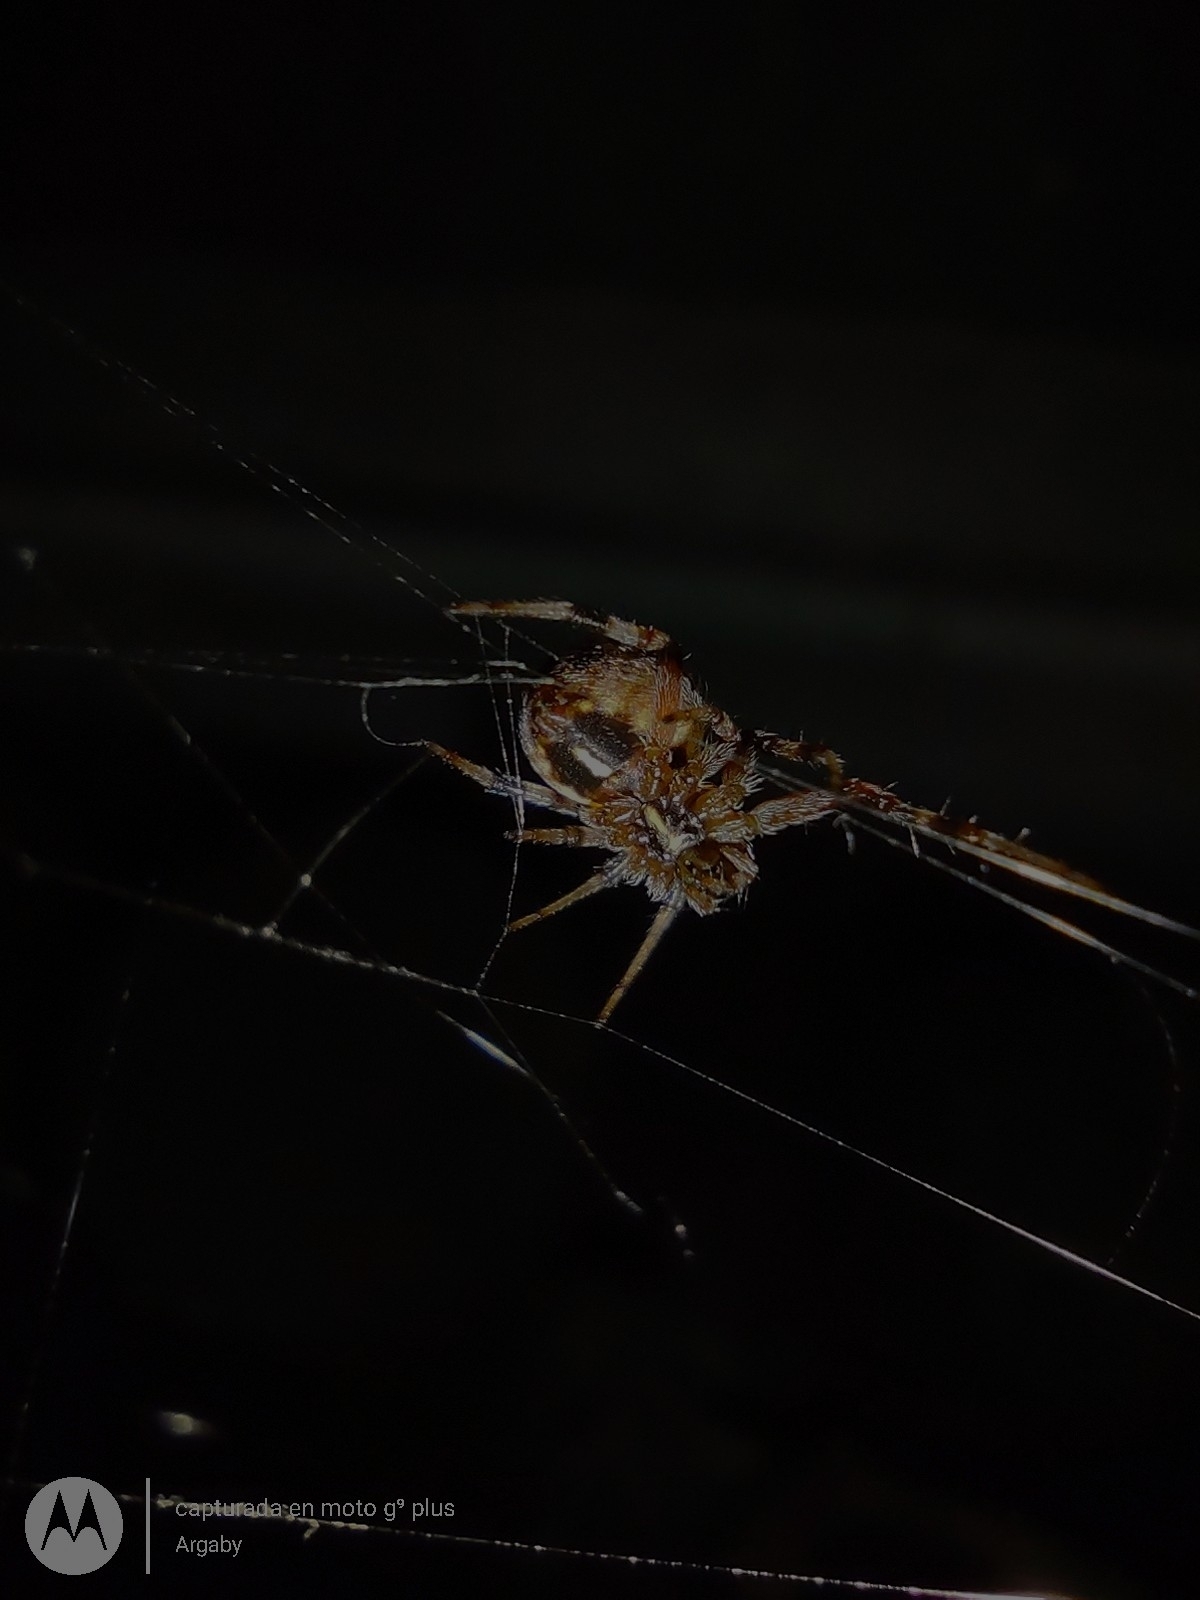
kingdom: Animalia
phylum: Arthropoda
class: Arachnida
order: Araneae
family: Araneidae
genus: Metepeira
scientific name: Metepeira
